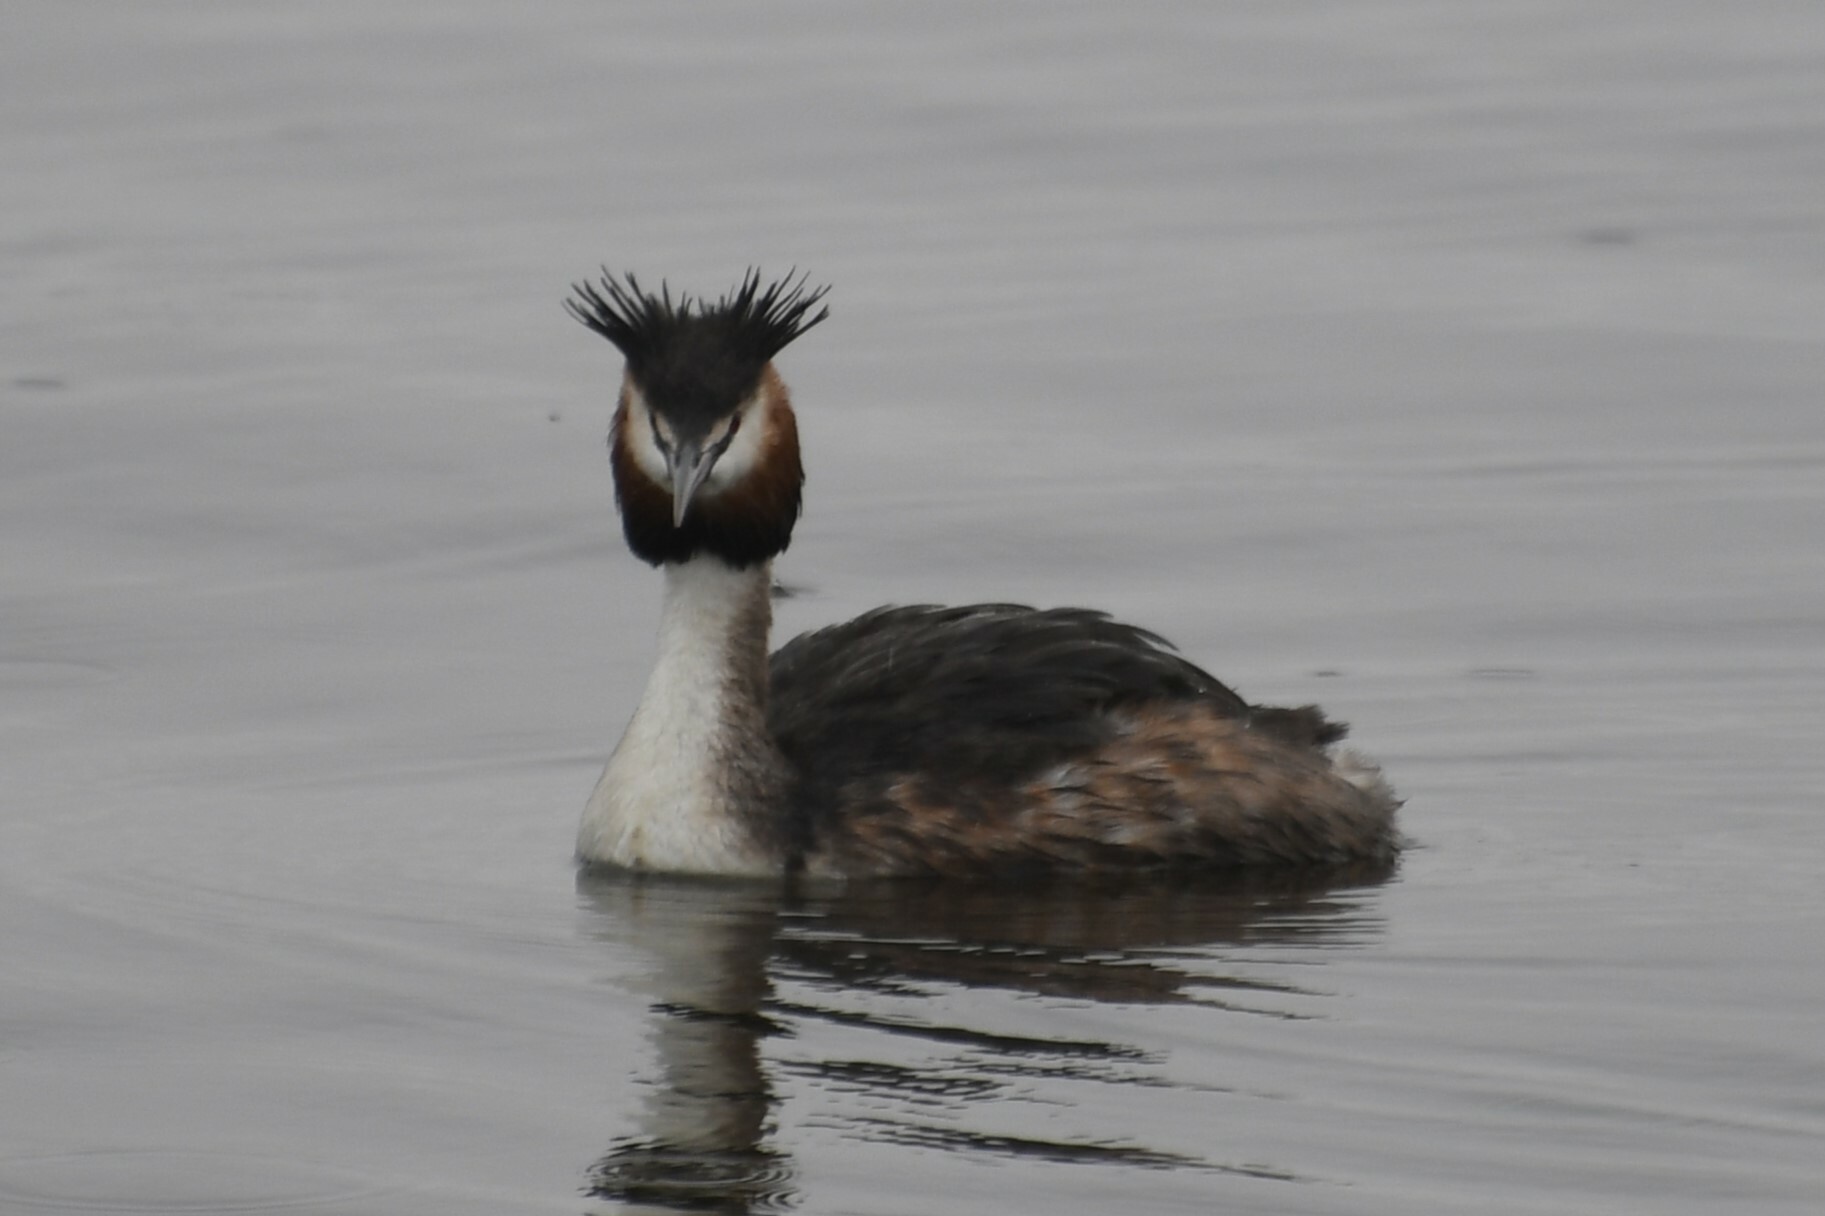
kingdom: Animalia
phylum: Chordata
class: Aves
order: Podicipediformes
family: Podicipedidae
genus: Podiceps
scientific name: Podiceps cristatus
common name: Great crested grebe
